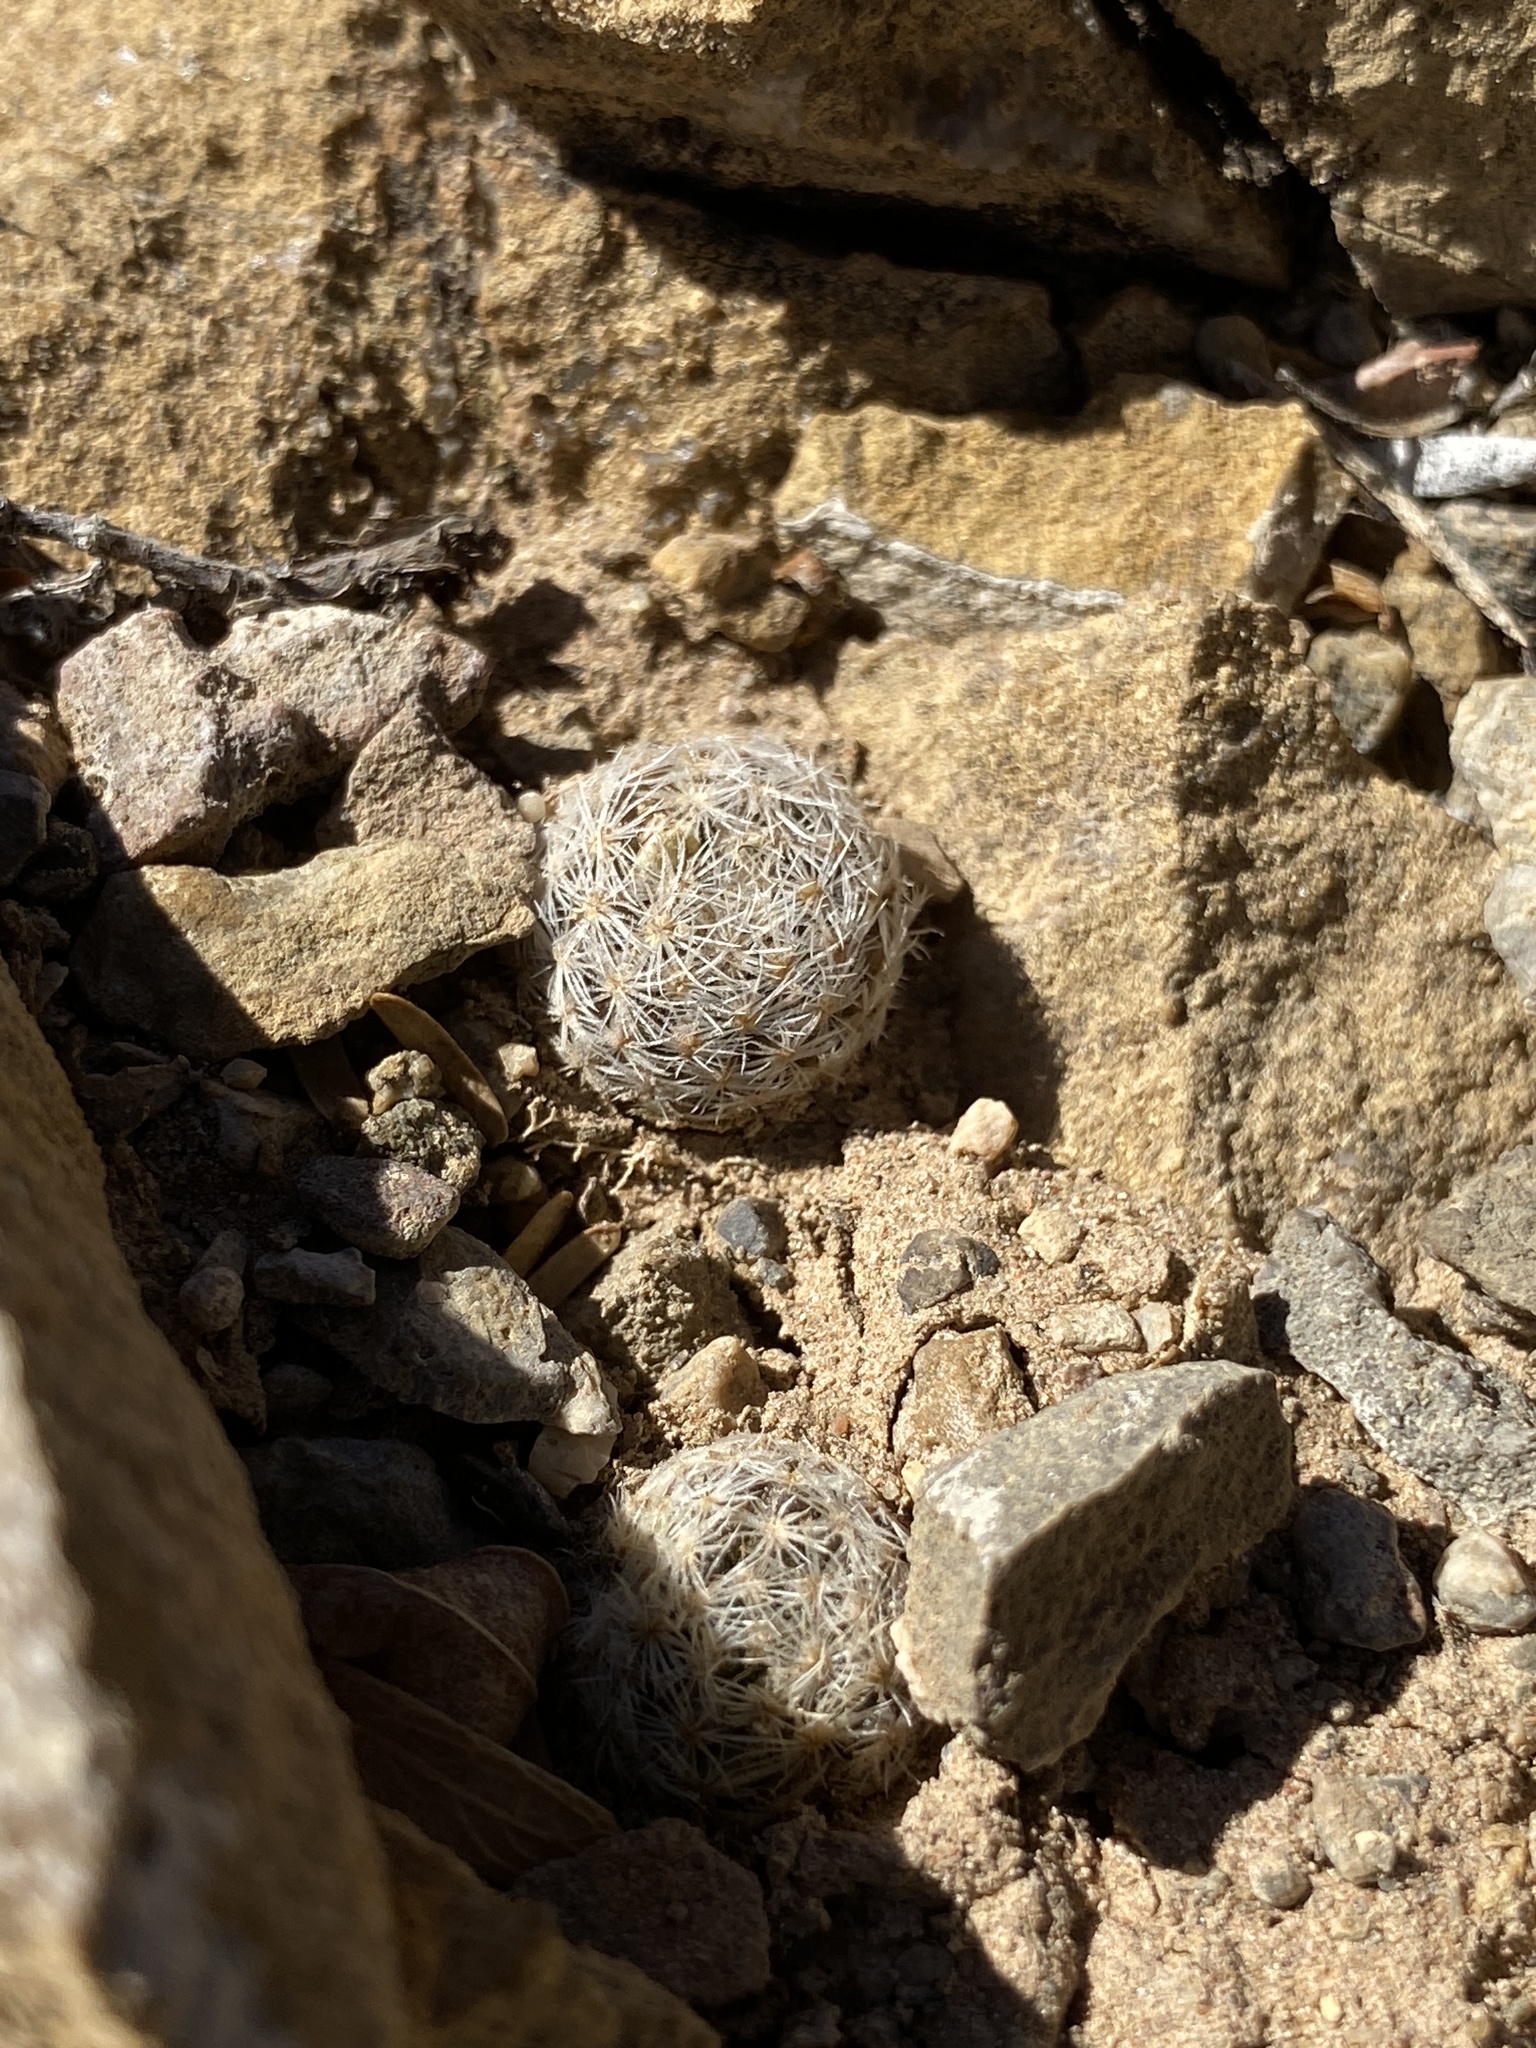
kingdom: Plantae
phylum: Tracheophyta
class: Magnoliopsida
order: Caryophyllales
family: Cactaceae
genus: Mammillaria
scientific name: Mammillaria lasiacantha
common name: Lace-spine nipple cactus
